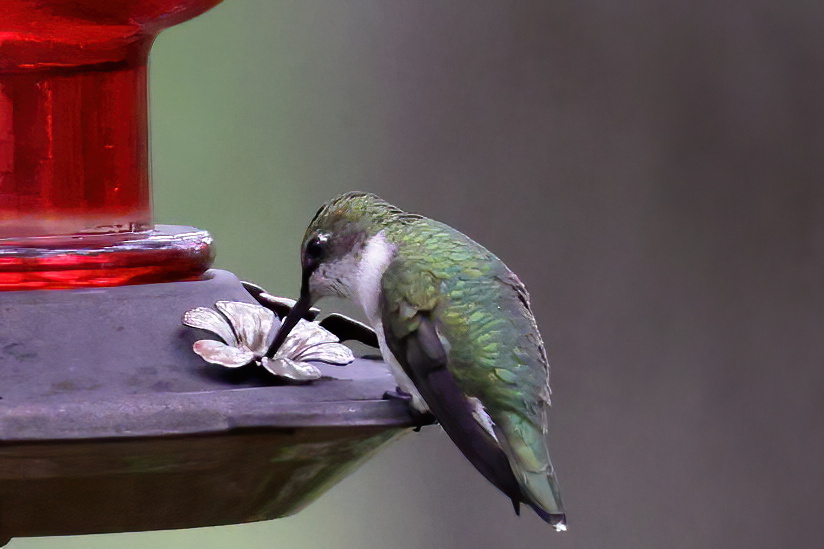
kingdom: Animalia
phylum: Chordata
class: Aves
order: Apodiformes
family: Trochilidae
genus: Archilochus
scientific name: Archilochus colubris
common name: Ruby-throated hummingbird
